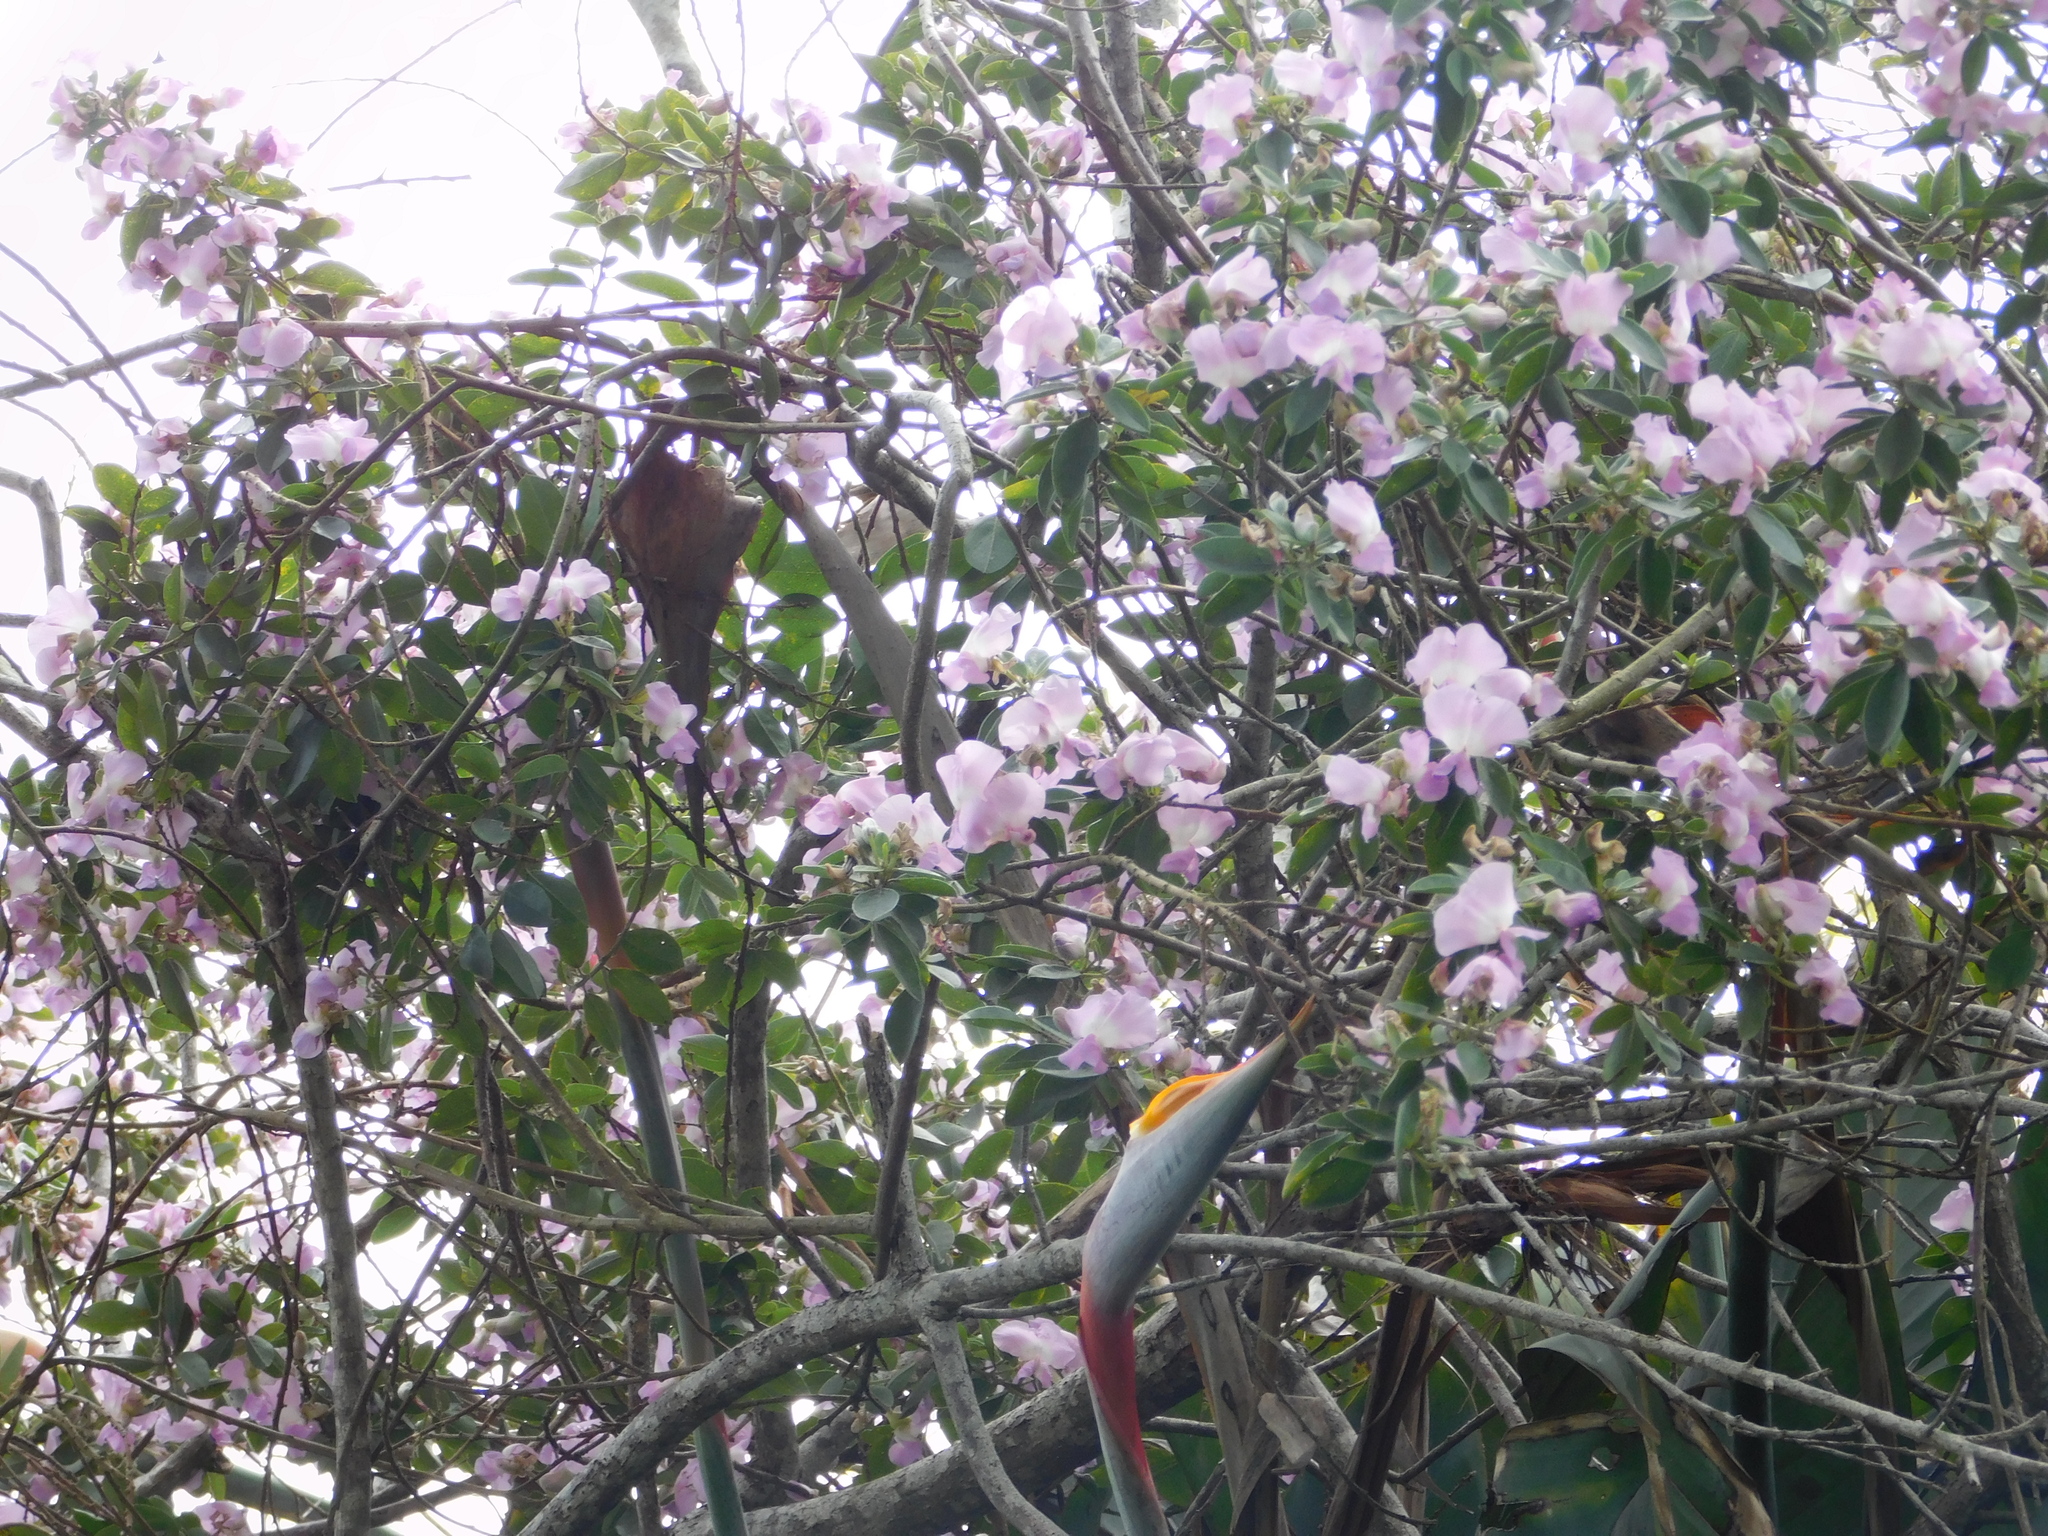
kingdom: Plantae
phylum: Tracheophyta
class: Magnoliopsida
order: Fabales
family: Fabaceae
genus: Podalyria
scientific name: Podalyria calyptrata
